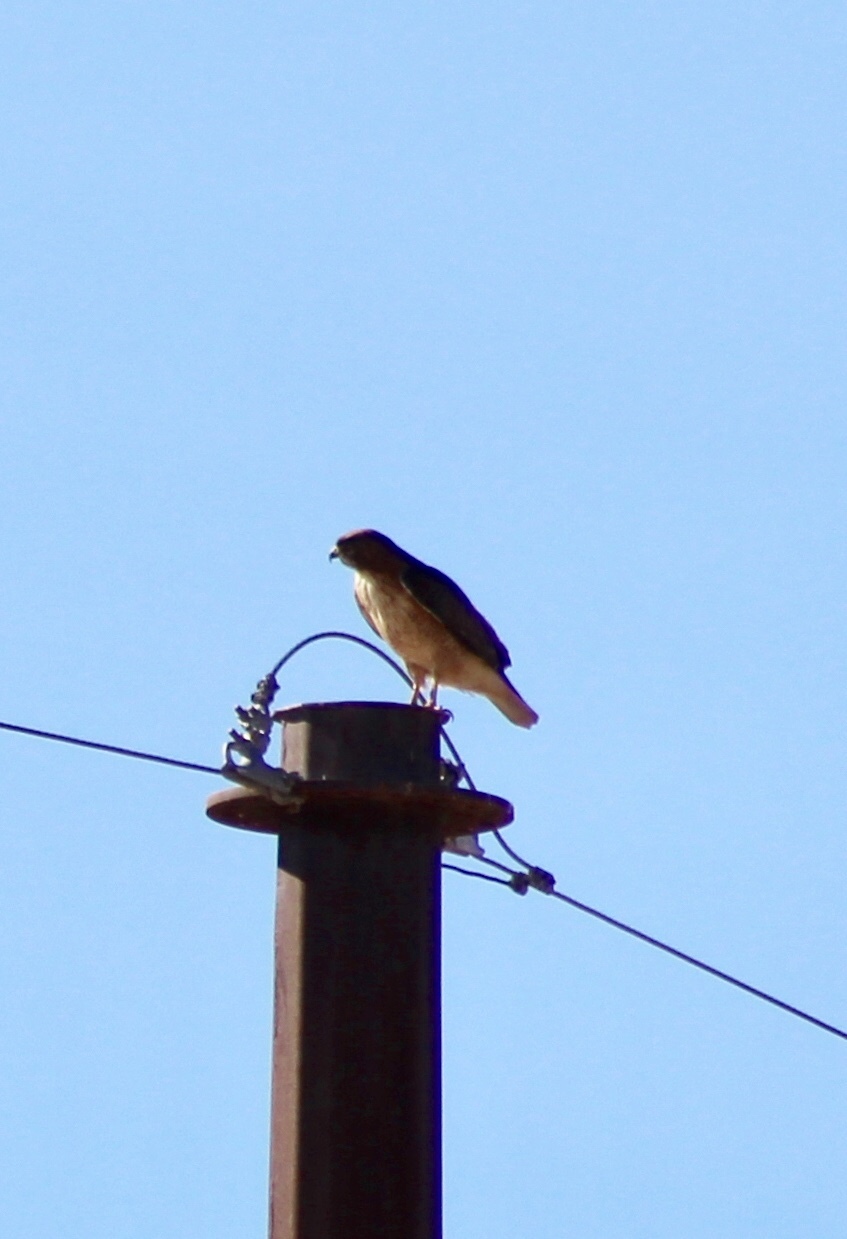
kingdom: Animalia
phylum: Chordata
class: Aves
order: Accipitriformes
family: Accipitridae
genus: Buteo
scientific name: Buteo jamaicensis
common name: Red-tailed hawk
